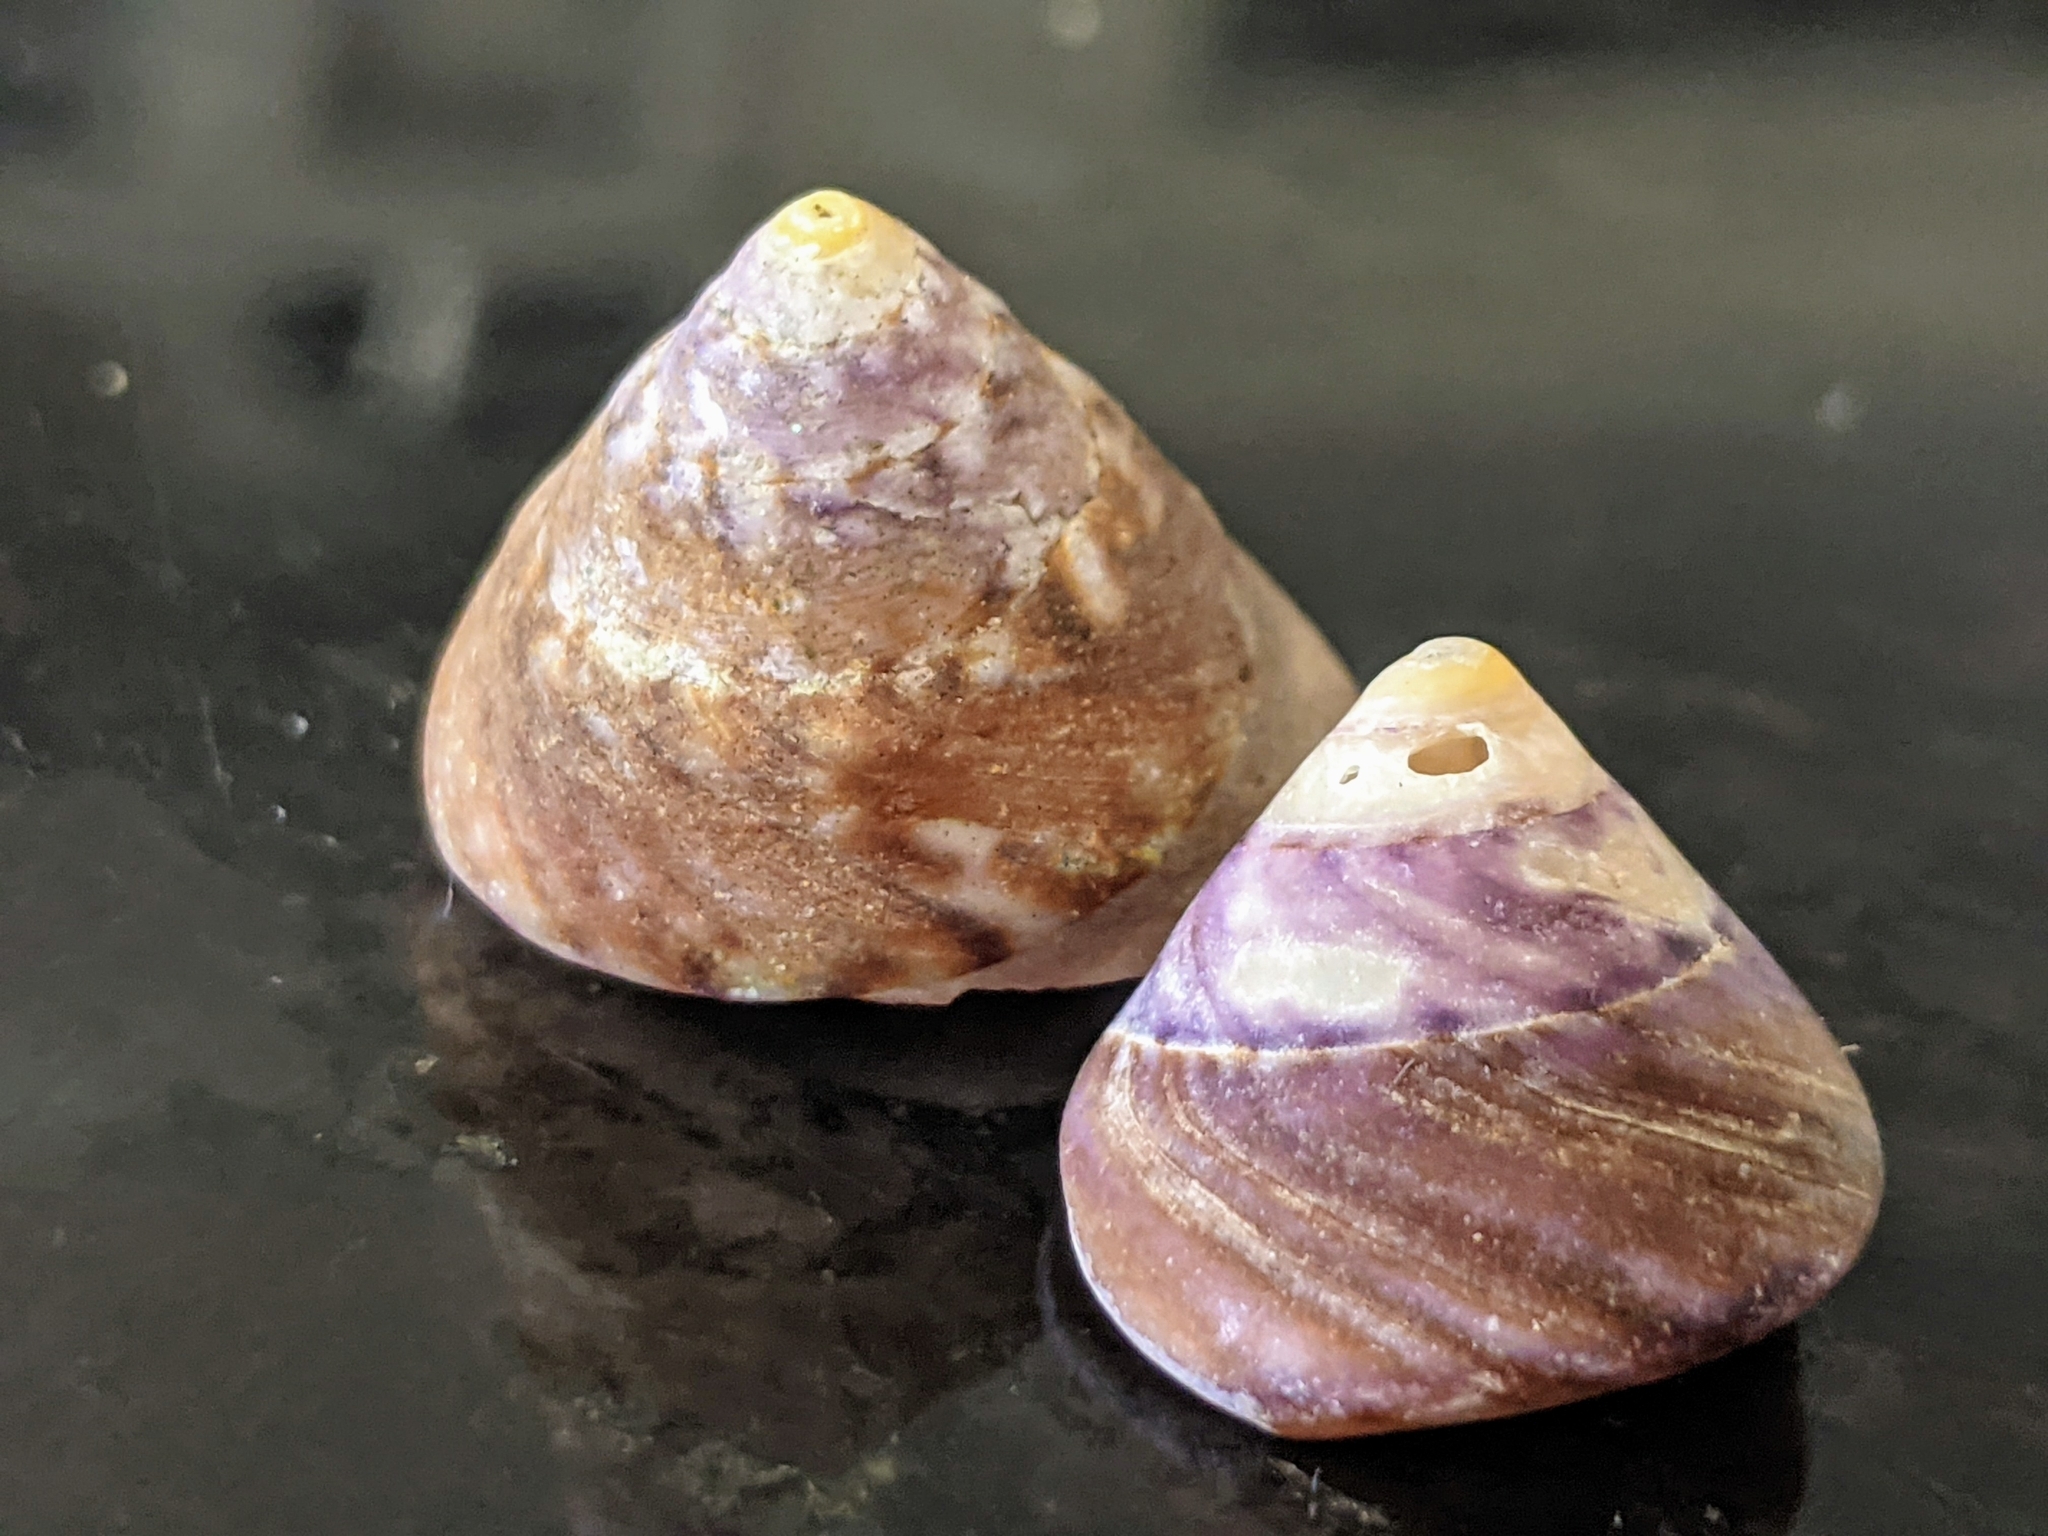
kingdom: Animalia
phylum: Mollusca
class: Gastropoda
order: Trochida
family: Tegulidae
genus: Tegula
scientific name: Tegula pulligo
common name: Brown turban
